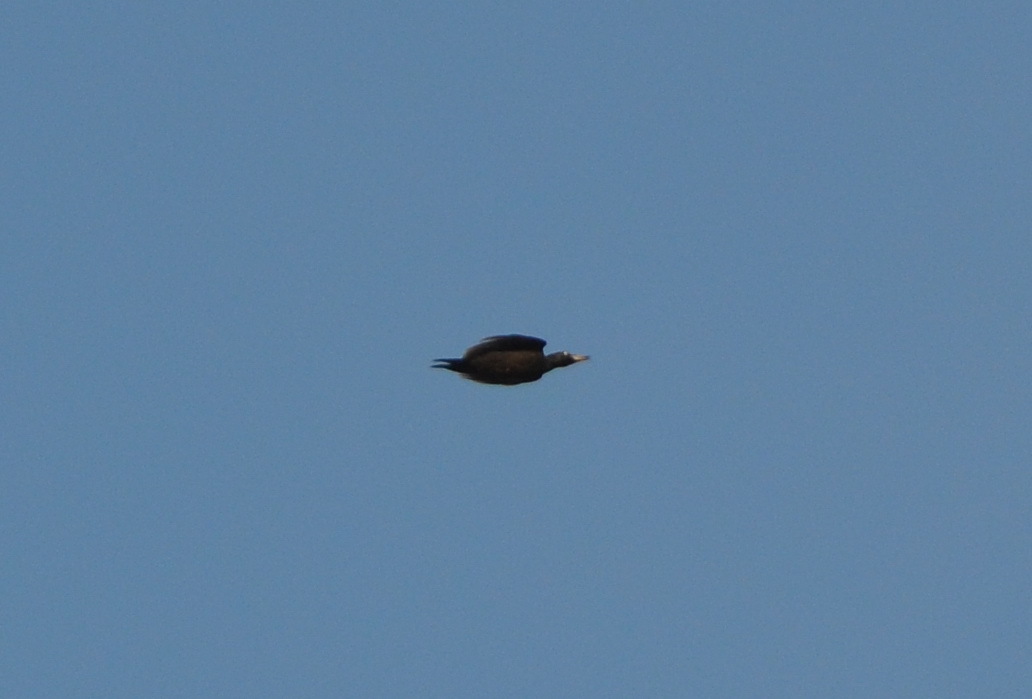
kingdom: Animalia
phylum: Chordata
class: Aves
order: Piciformes
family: Picidae
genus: Dryocopus
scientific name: Dryocopus martius
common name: Black woodpecker
